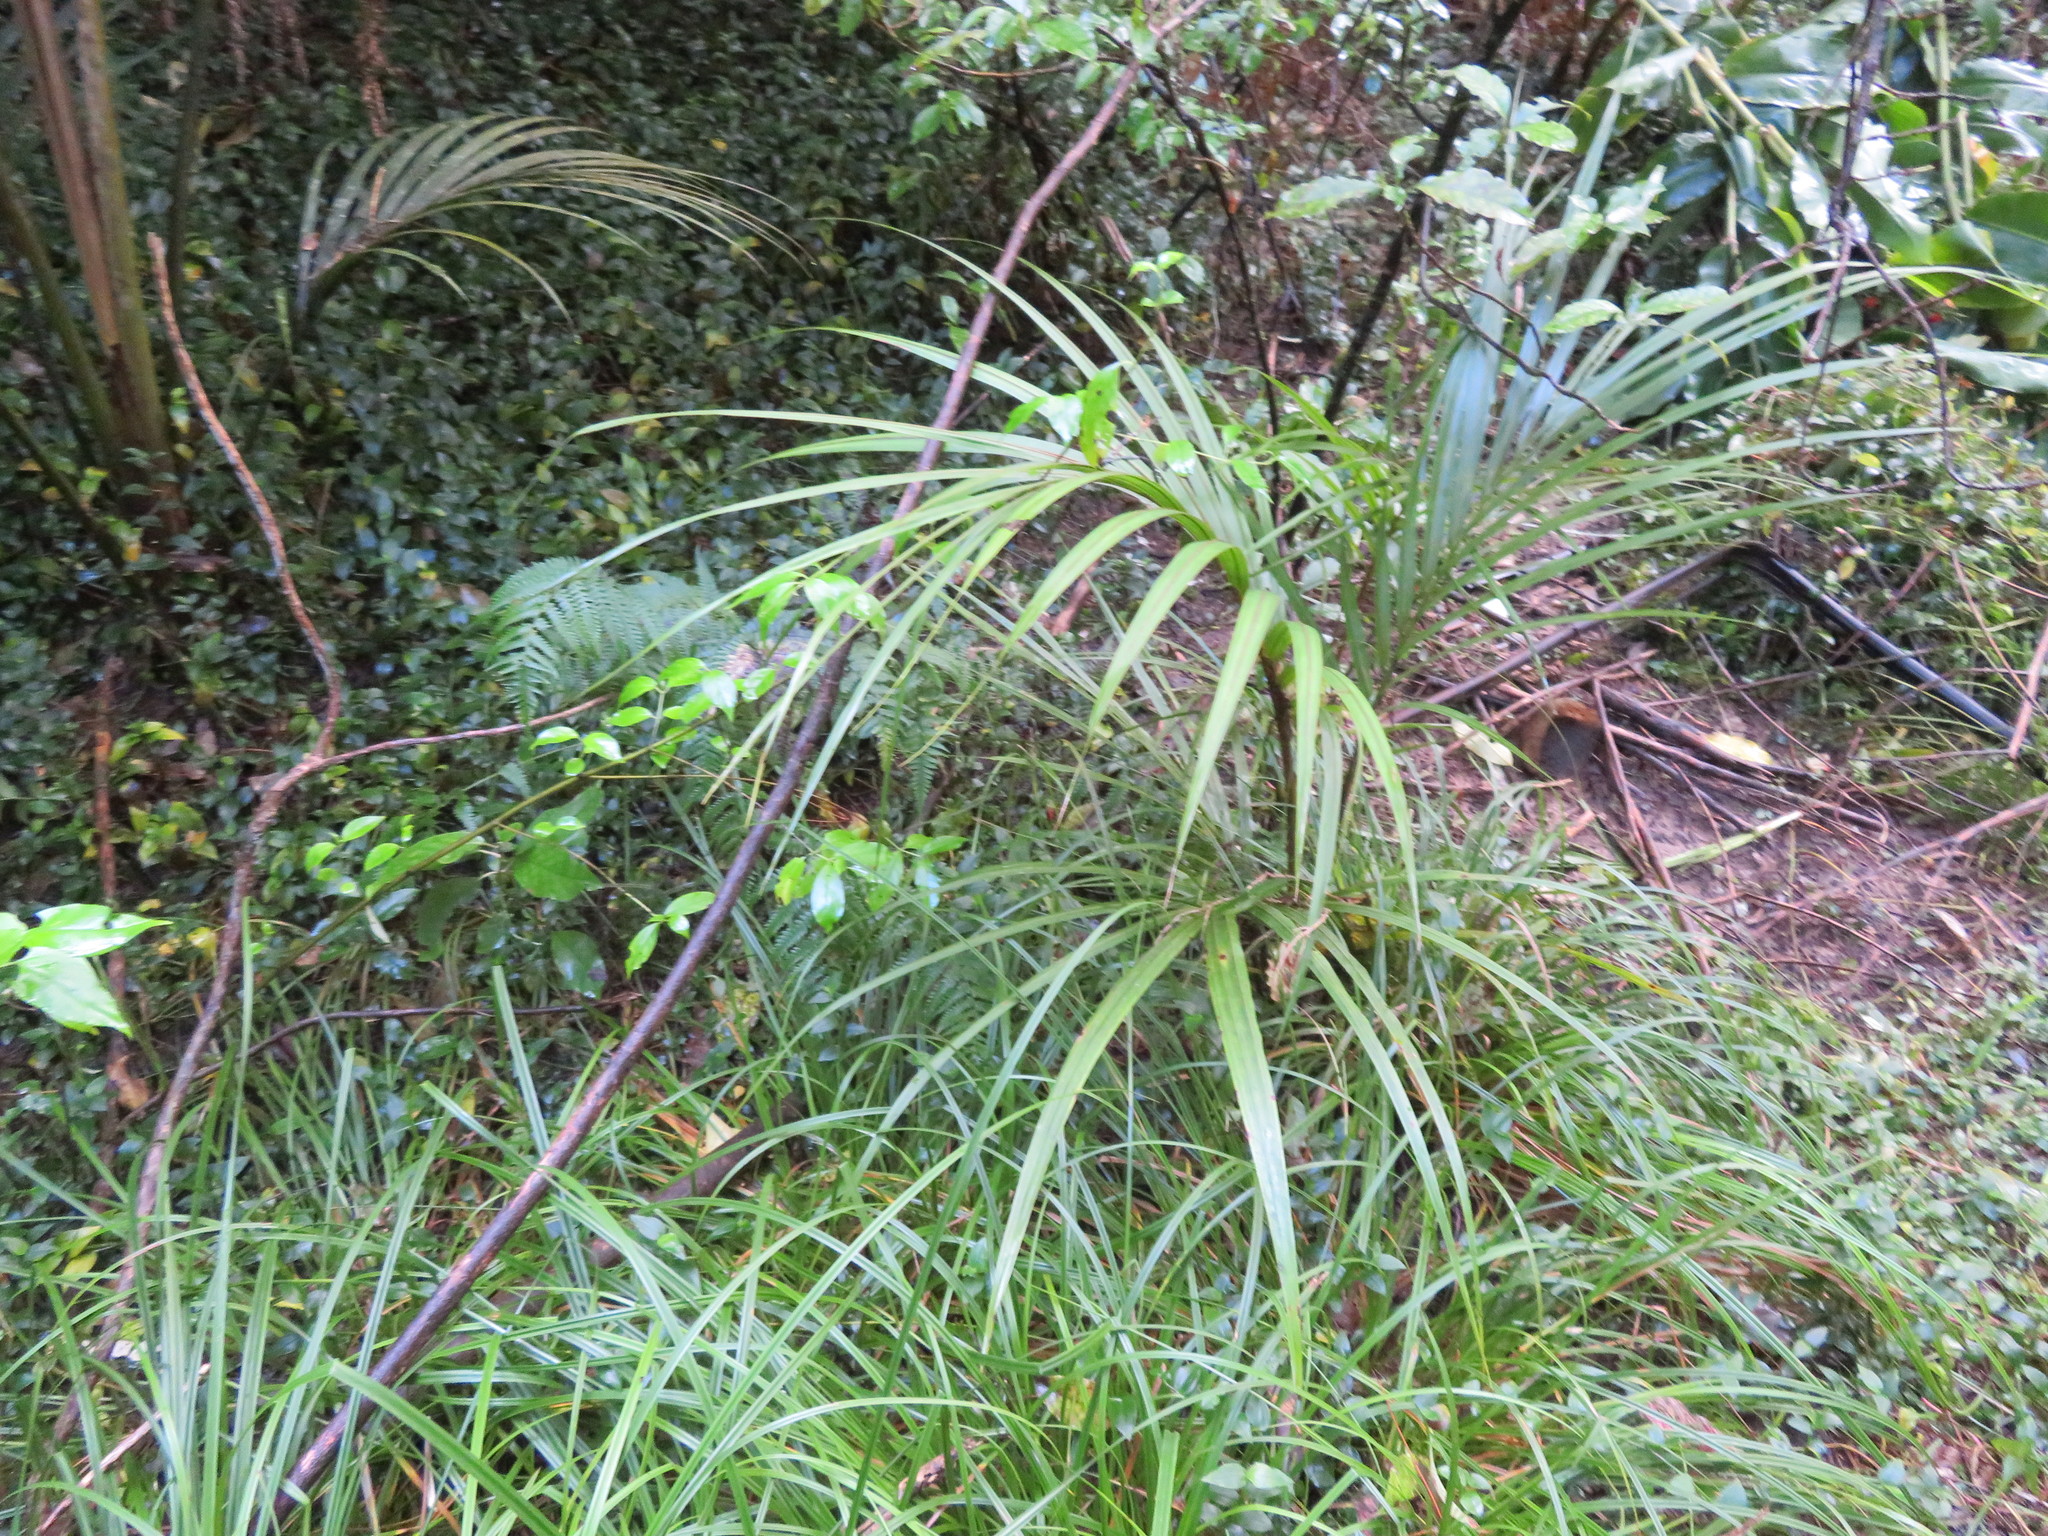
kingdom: Plantae
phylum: Tracheophyta
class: Liliopsida
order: Arecales
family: Arecaceae
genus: Rhopalostylis
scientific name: Rhopalostylis sapida
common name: Feather-duster palm
